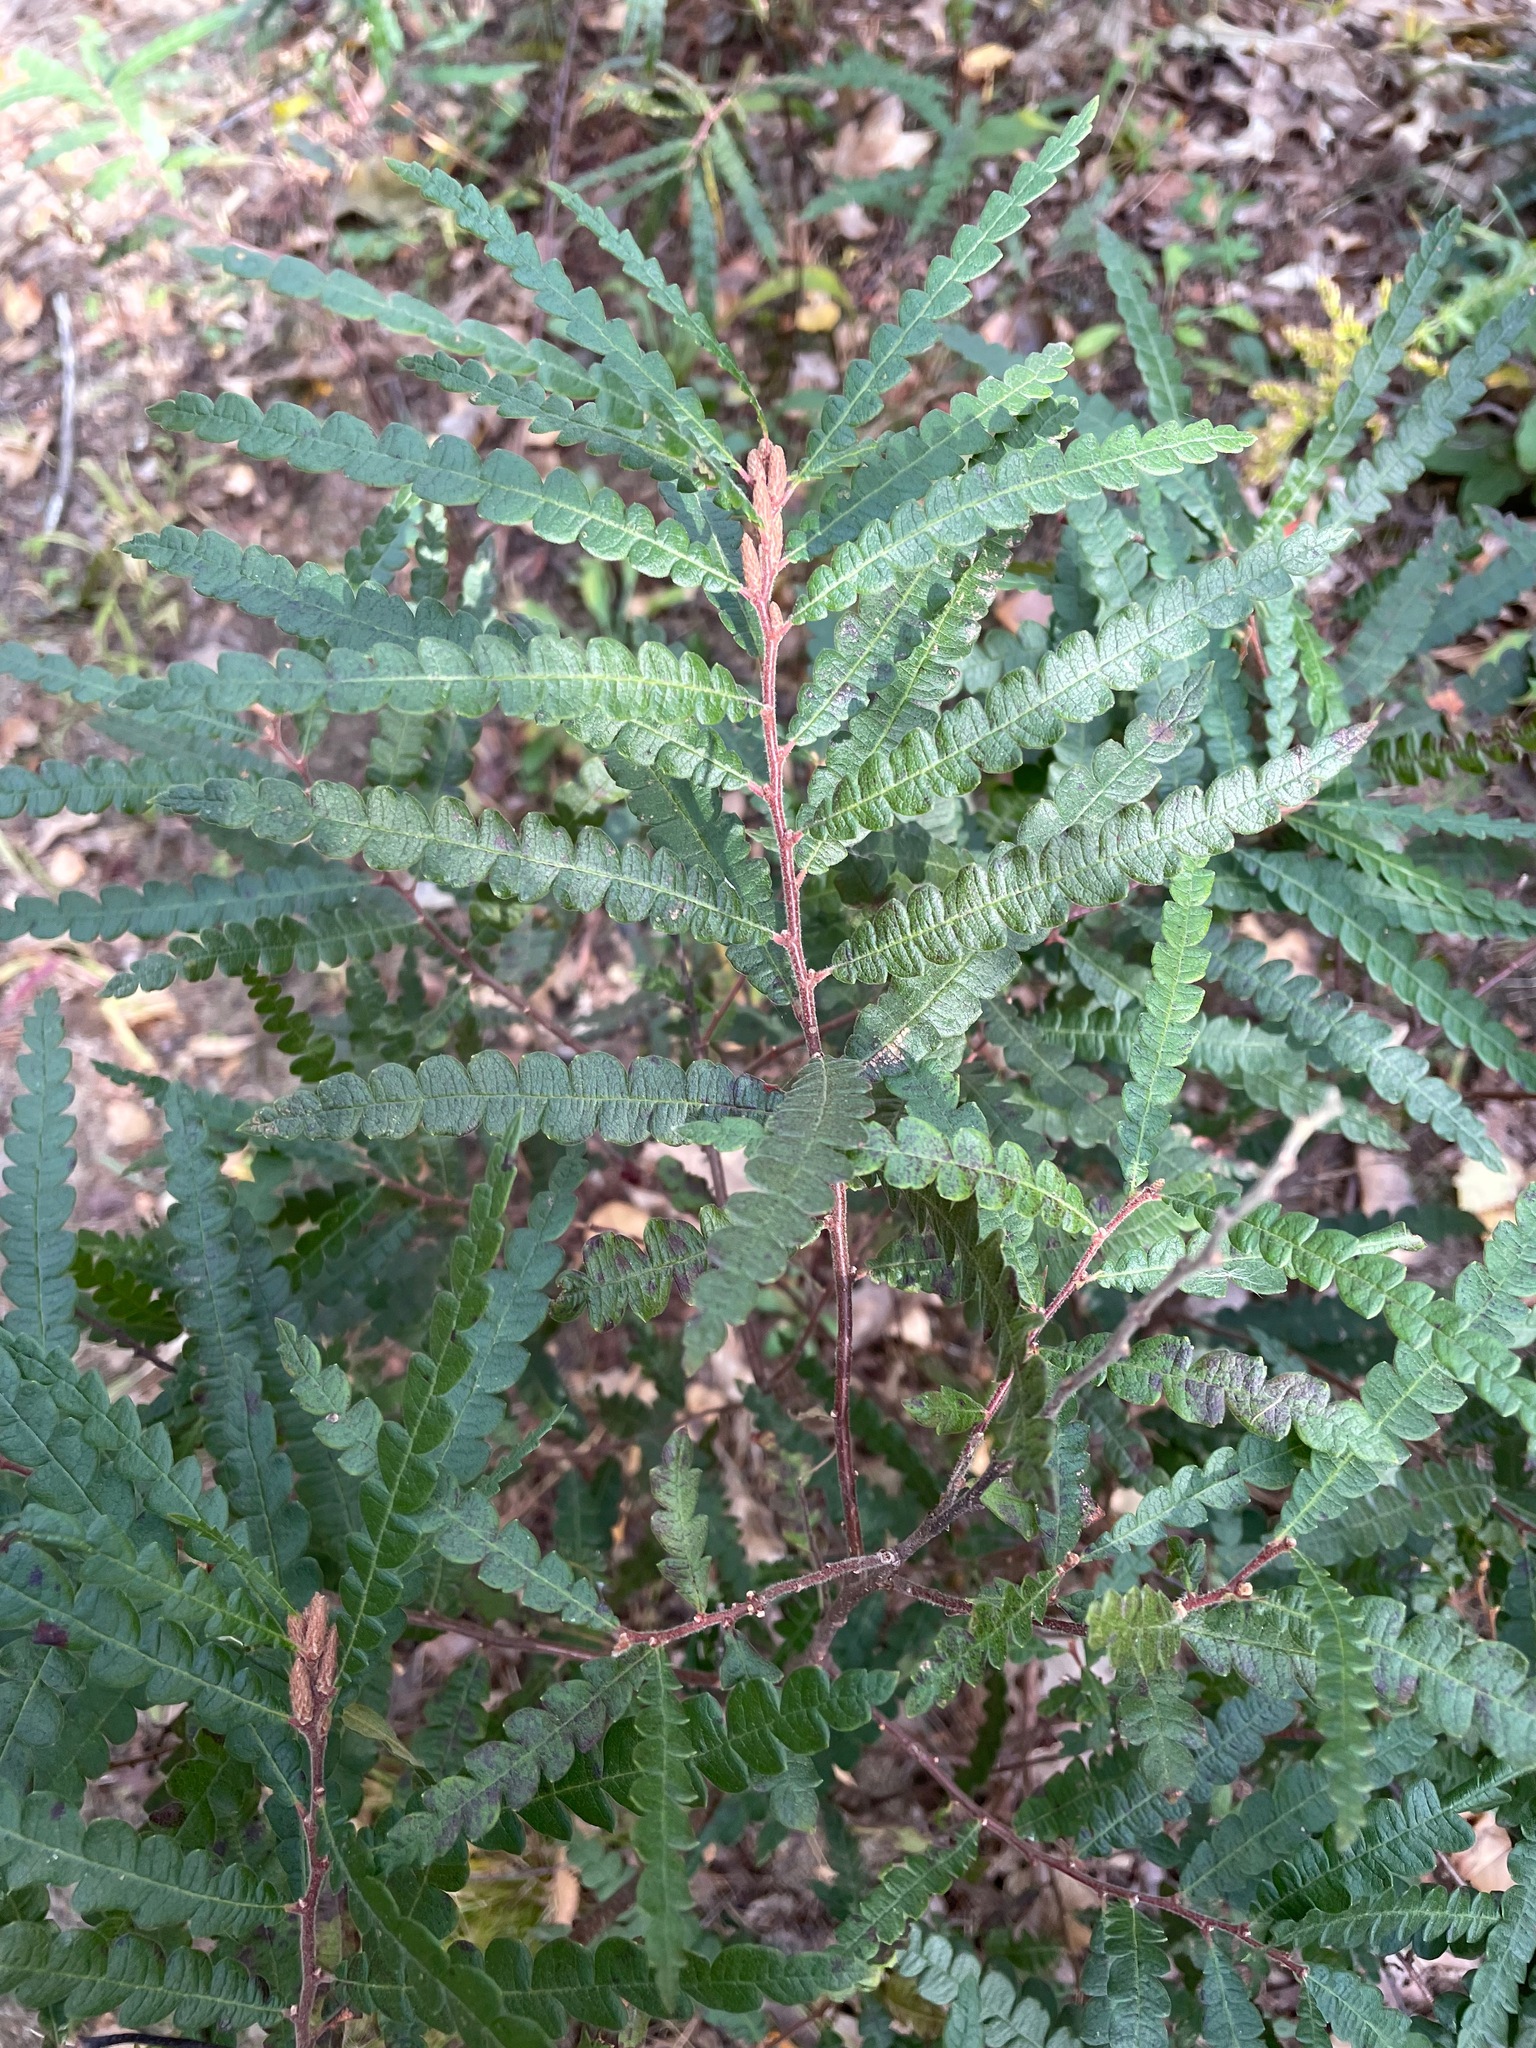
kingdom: Plantae
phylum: Tracheophyta
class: Magnoliopsida
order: Fagales
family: Myricaceae
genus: Comptonia
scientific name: Comptonia peregrina
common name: Sweet-fern
